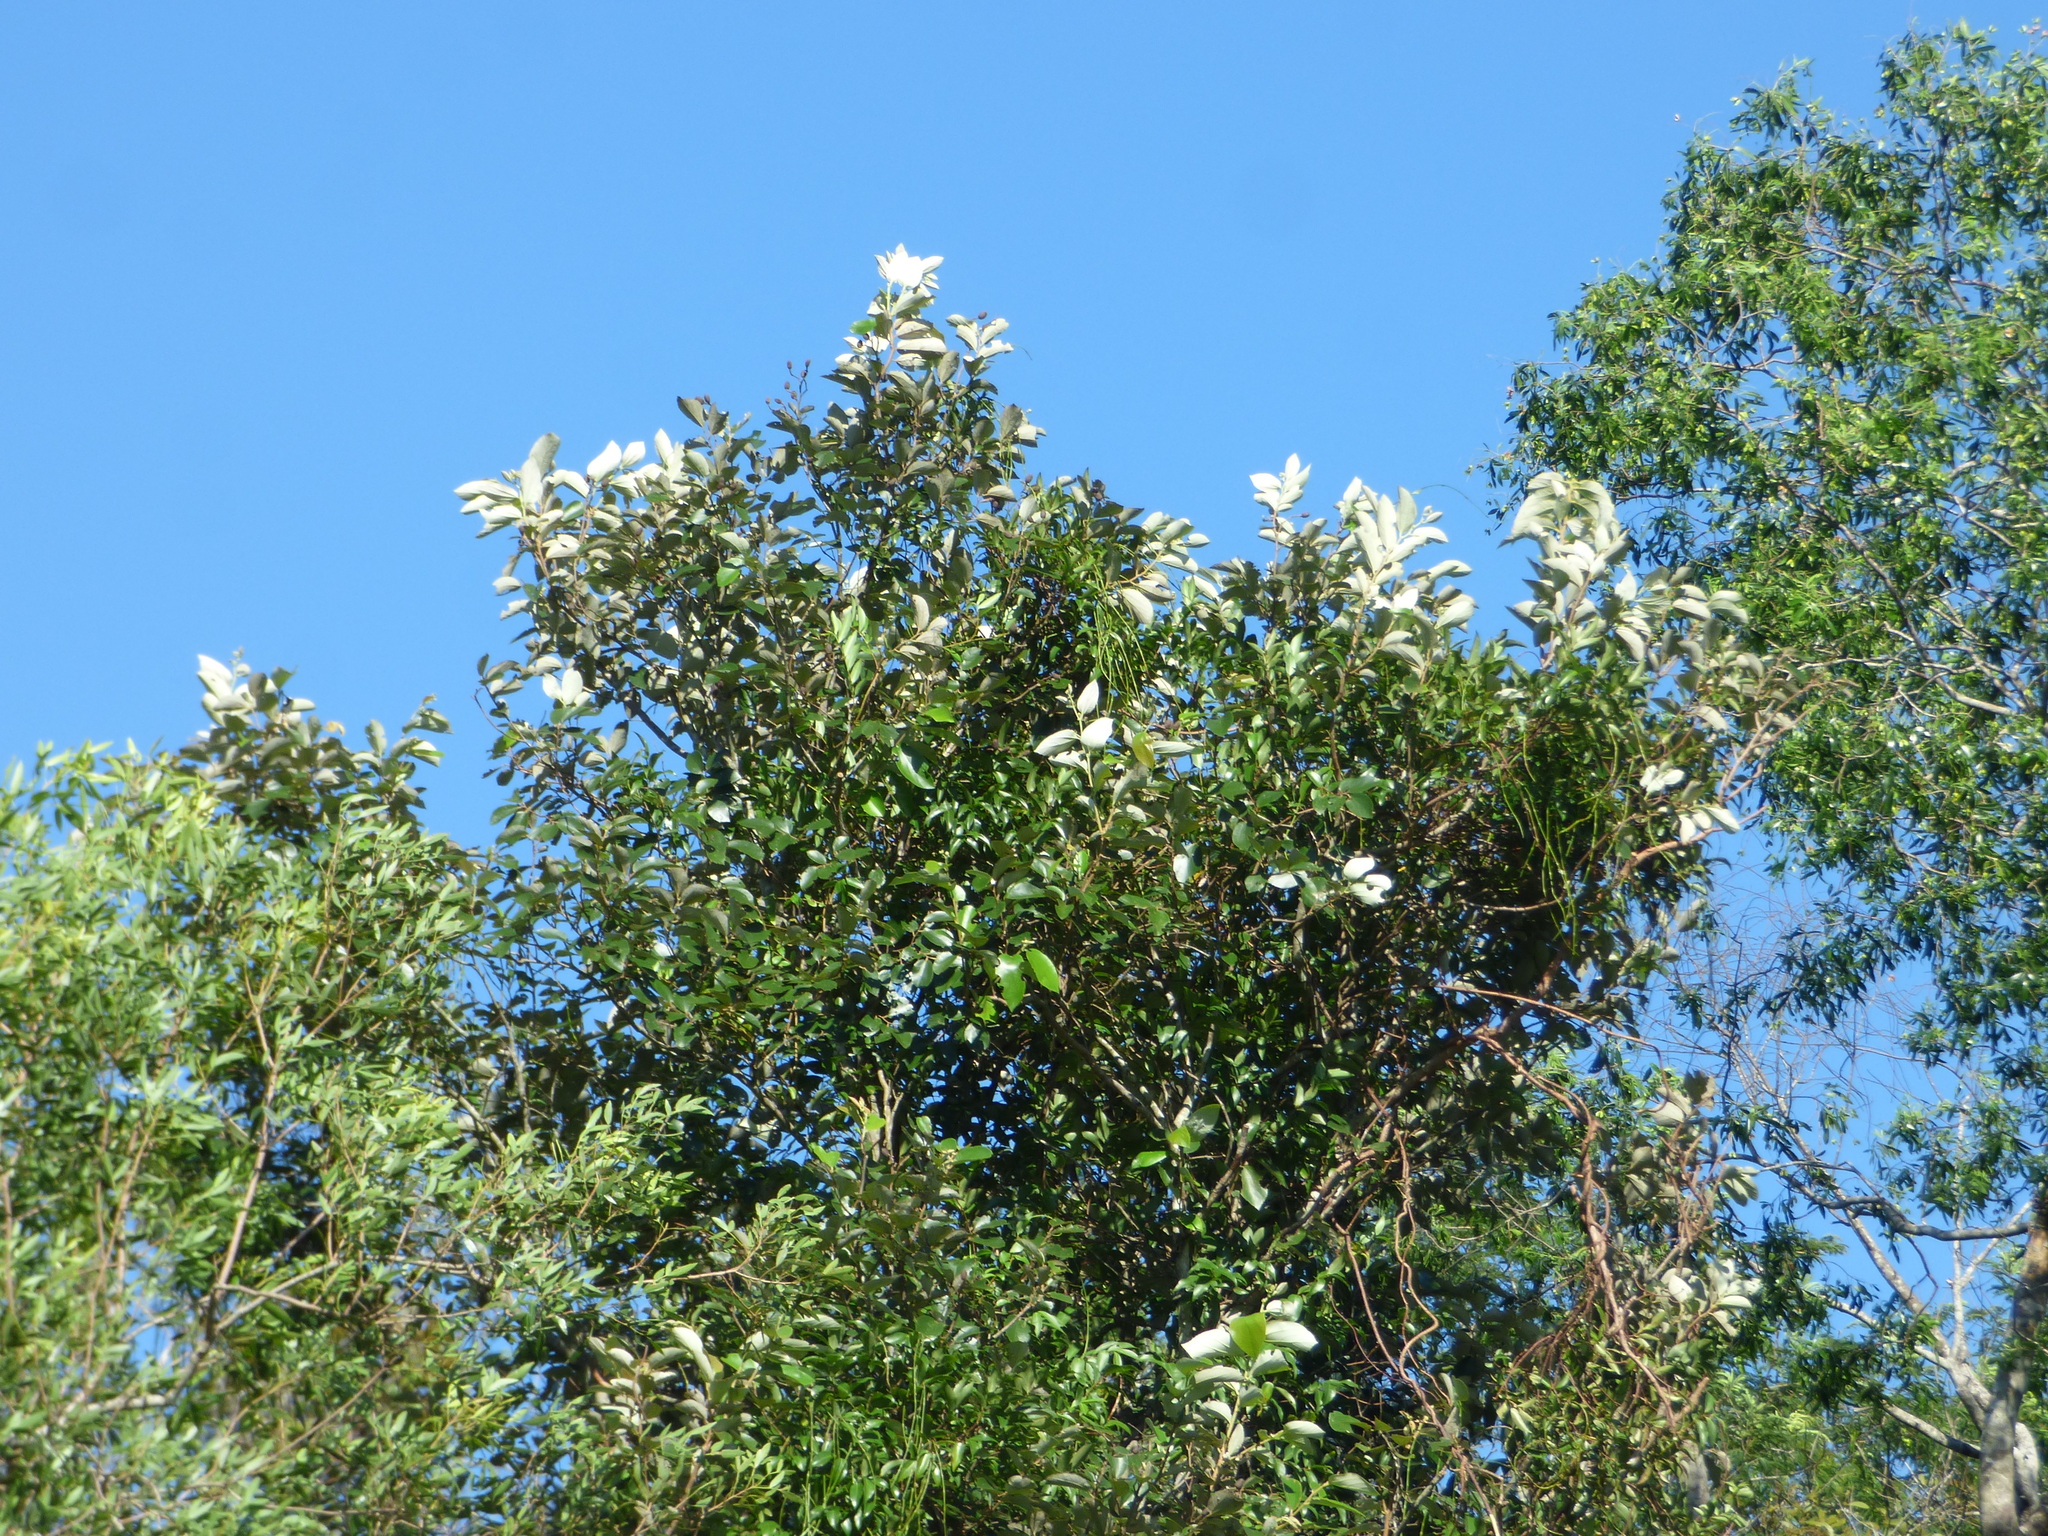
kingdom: Plantae
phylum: Tracheophyta
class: Magnoliopsida
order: Malvales
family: Malvaceae
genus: Luehea
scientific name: Luehea divaricata
